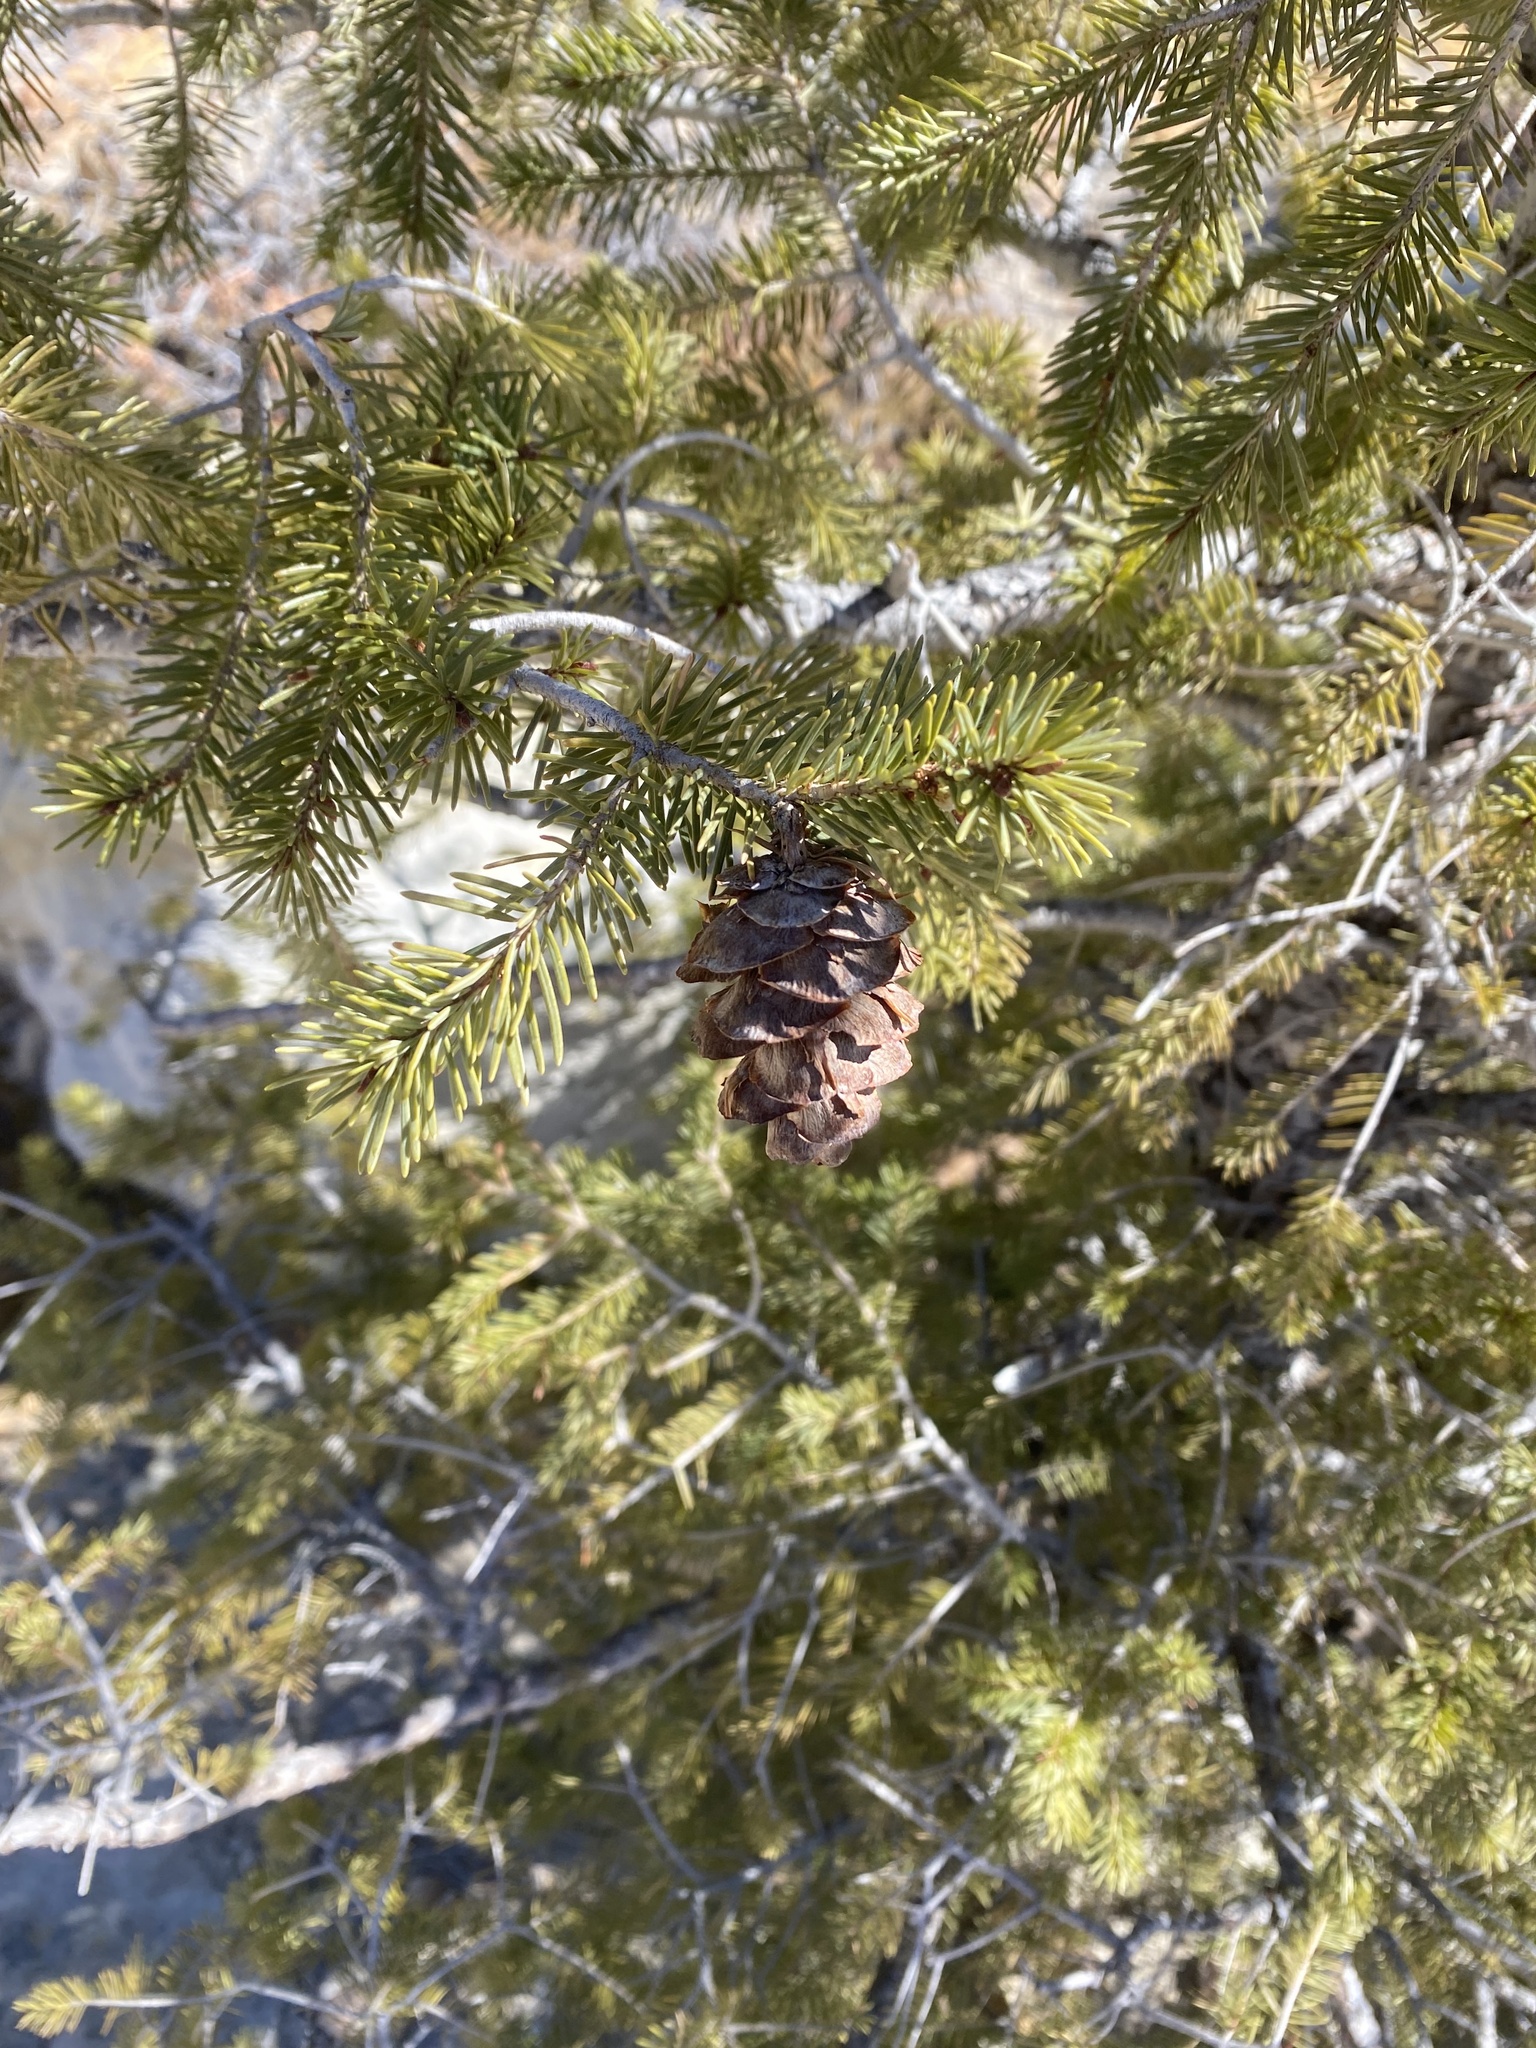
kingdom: Plantae
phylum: Tracheophyta
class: Pinopsida
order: Pinales
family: Pinaceae
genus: Pseudotsuga
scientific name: Pseudotsuga menziesii
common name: Douglas fir
